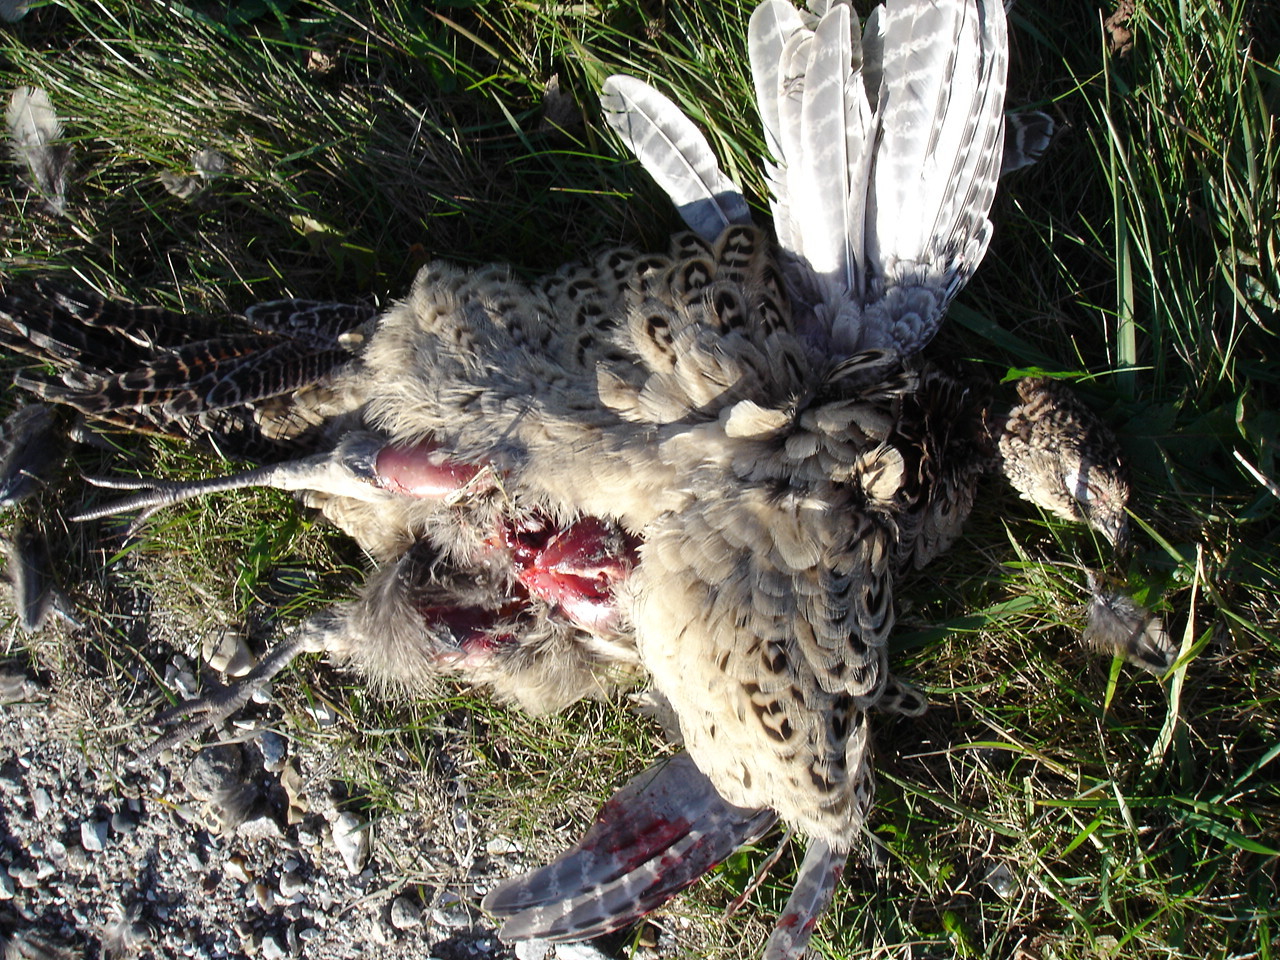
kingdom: Animalia
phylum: Chordata
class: Aves
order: Galliformes
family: Phasianidae
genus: Phasianus
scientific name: Phasianus colchicus
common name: Common pheasant
